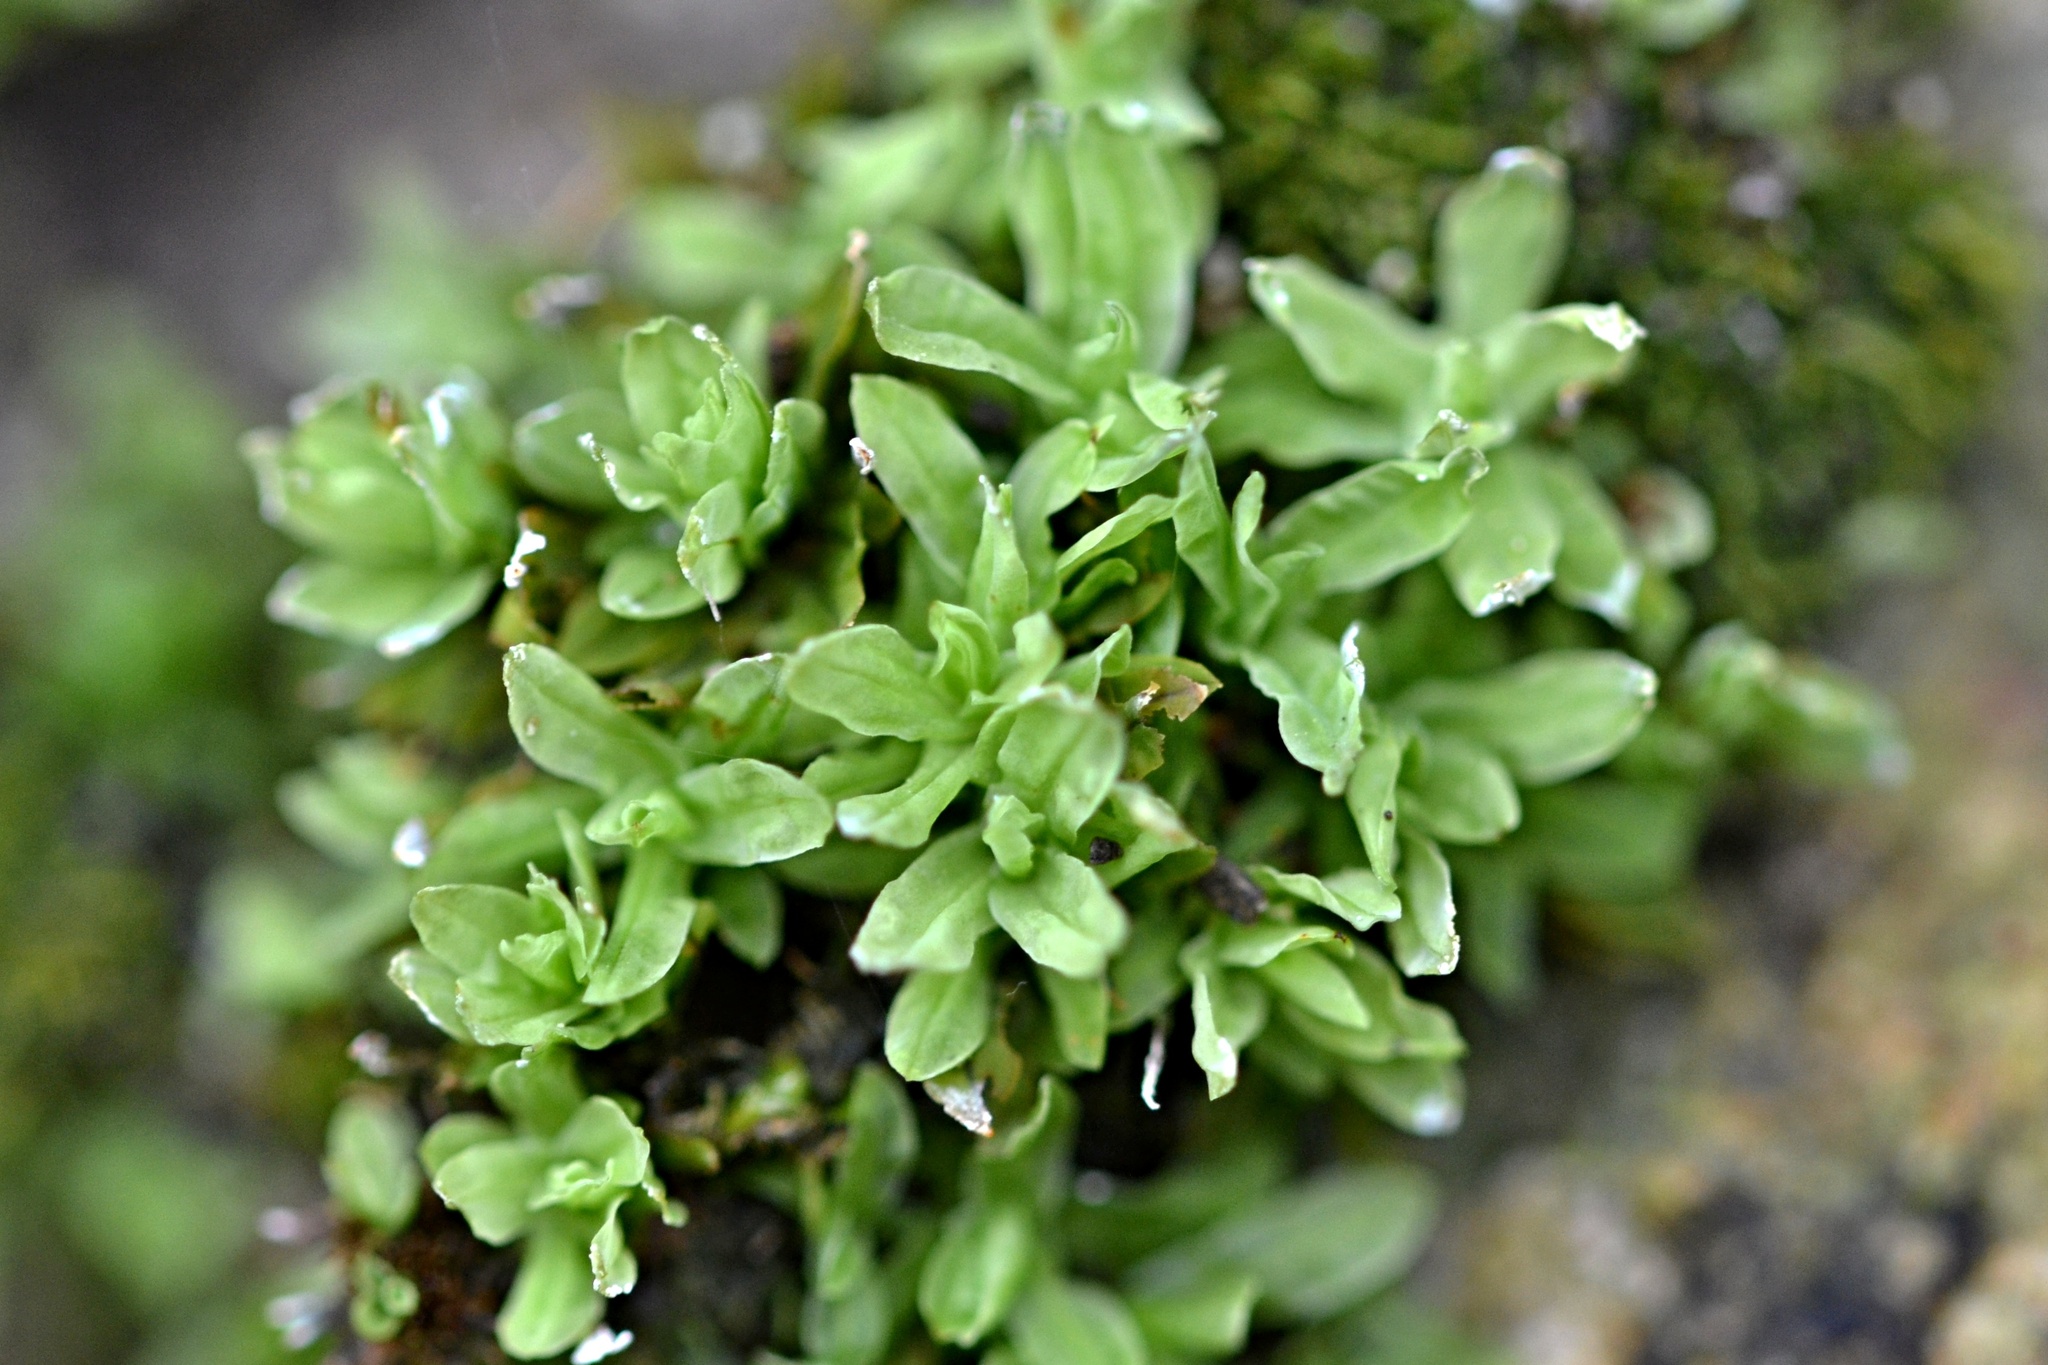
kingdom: Plantae
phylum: Bryophyta
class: Bryopsida
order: Encalyptales
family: Encalyptaceae
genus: Encalypta
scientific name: Encalypta streptocarpa
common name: Spiral extinguisher-moss
